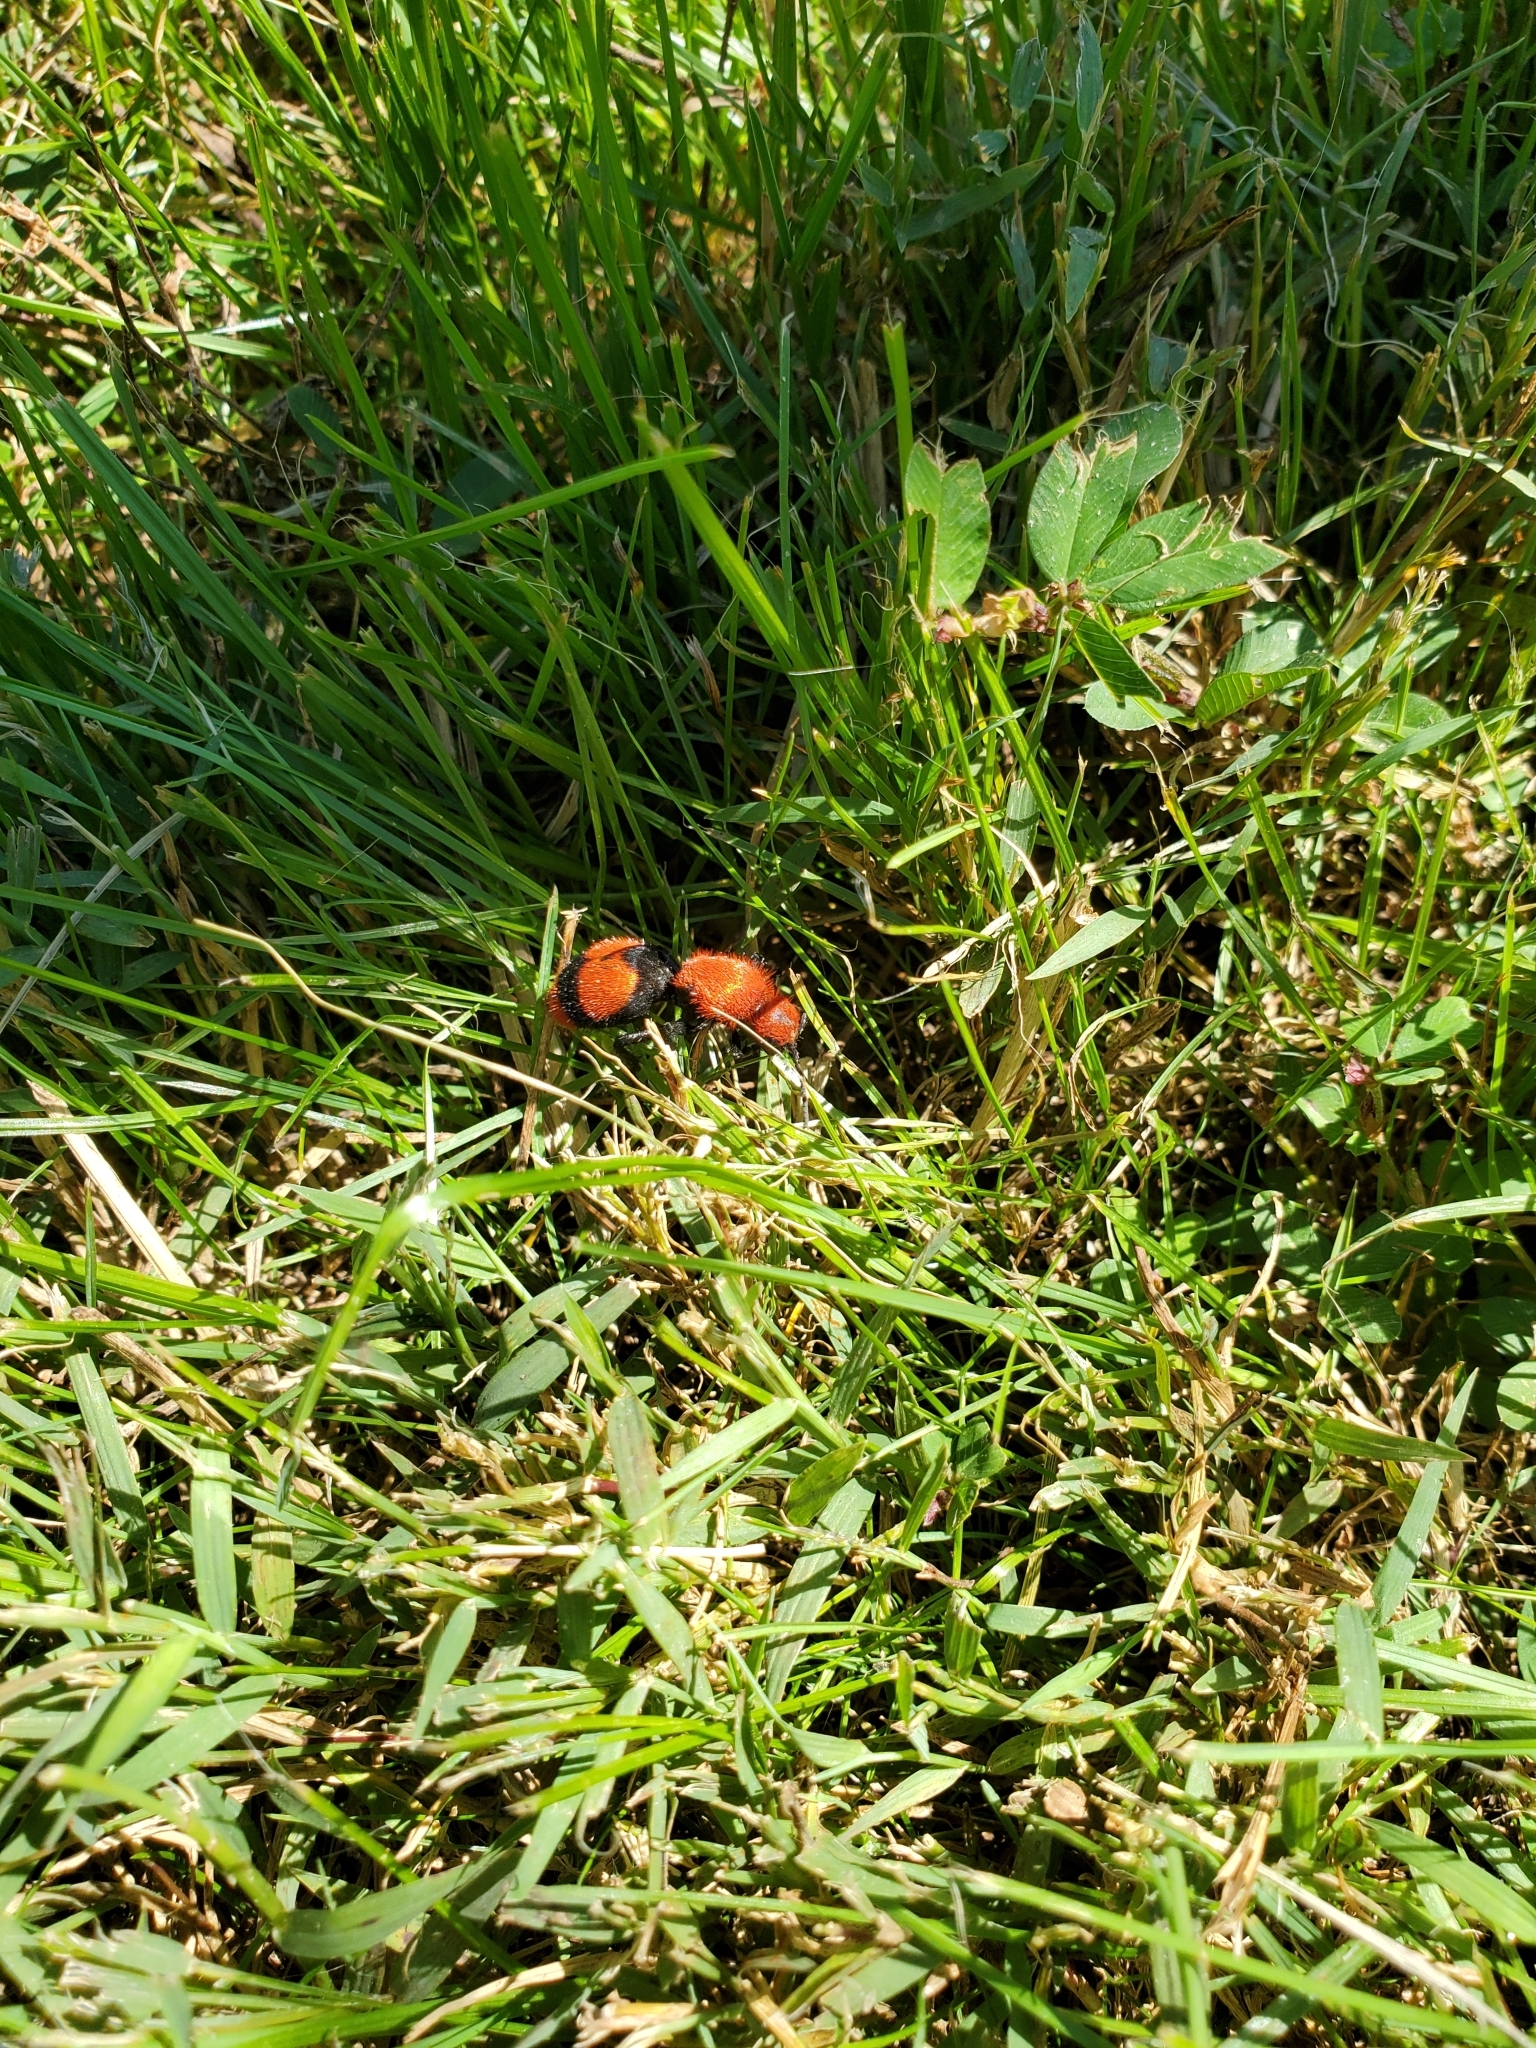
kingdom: Animalia
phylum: Arthropoda
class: Insecta
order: Hymenoptera
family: Mutillidae
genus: Dasymutilla
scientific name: Dasymutilla occidentalis
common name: Common eastern velvet ant
